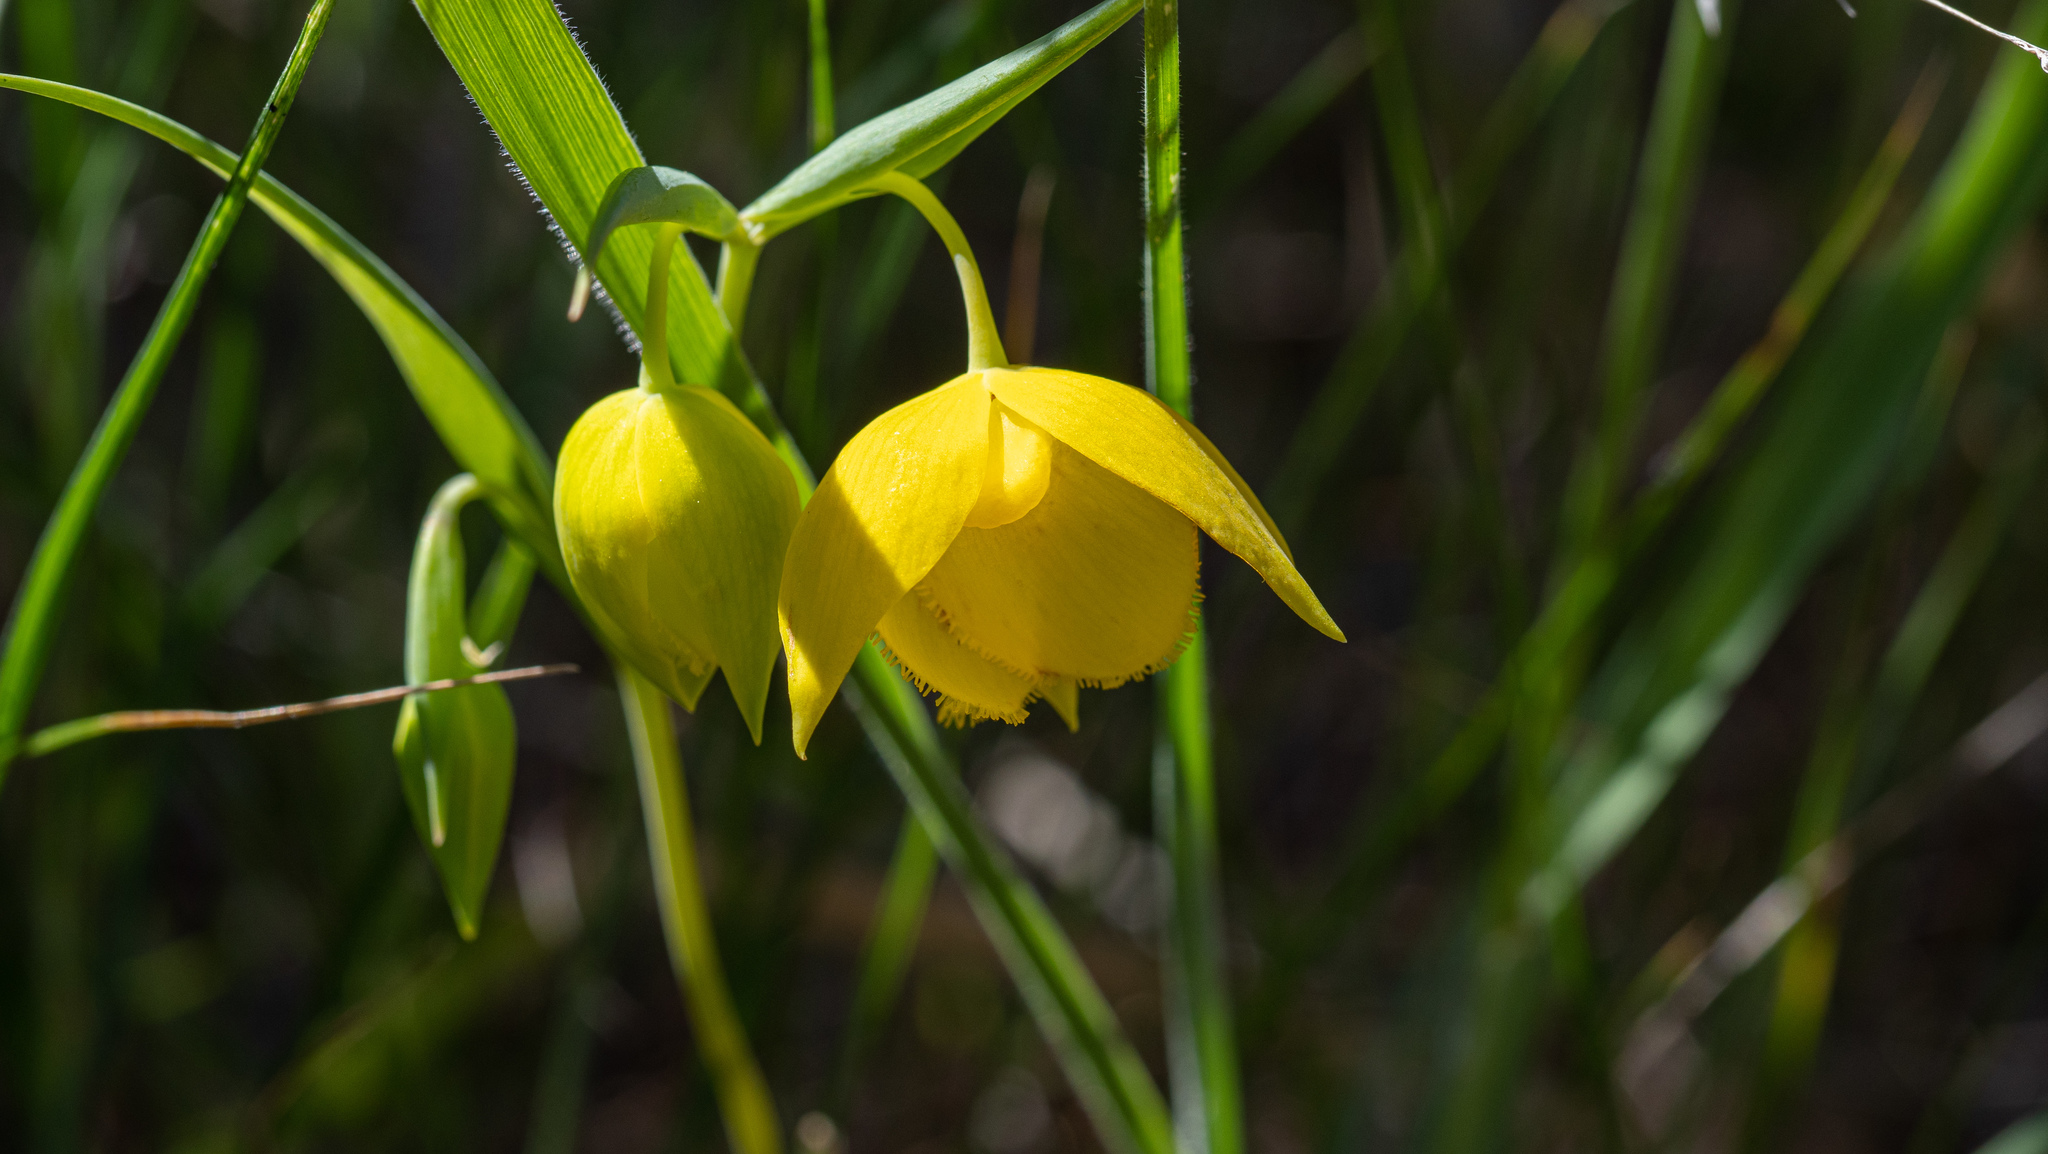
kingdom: Plantae
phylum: Tracheophyta
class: Liliopsida
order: Liliales
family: Liliaceae
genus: Calochortus
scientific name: Calochortus amabilis
